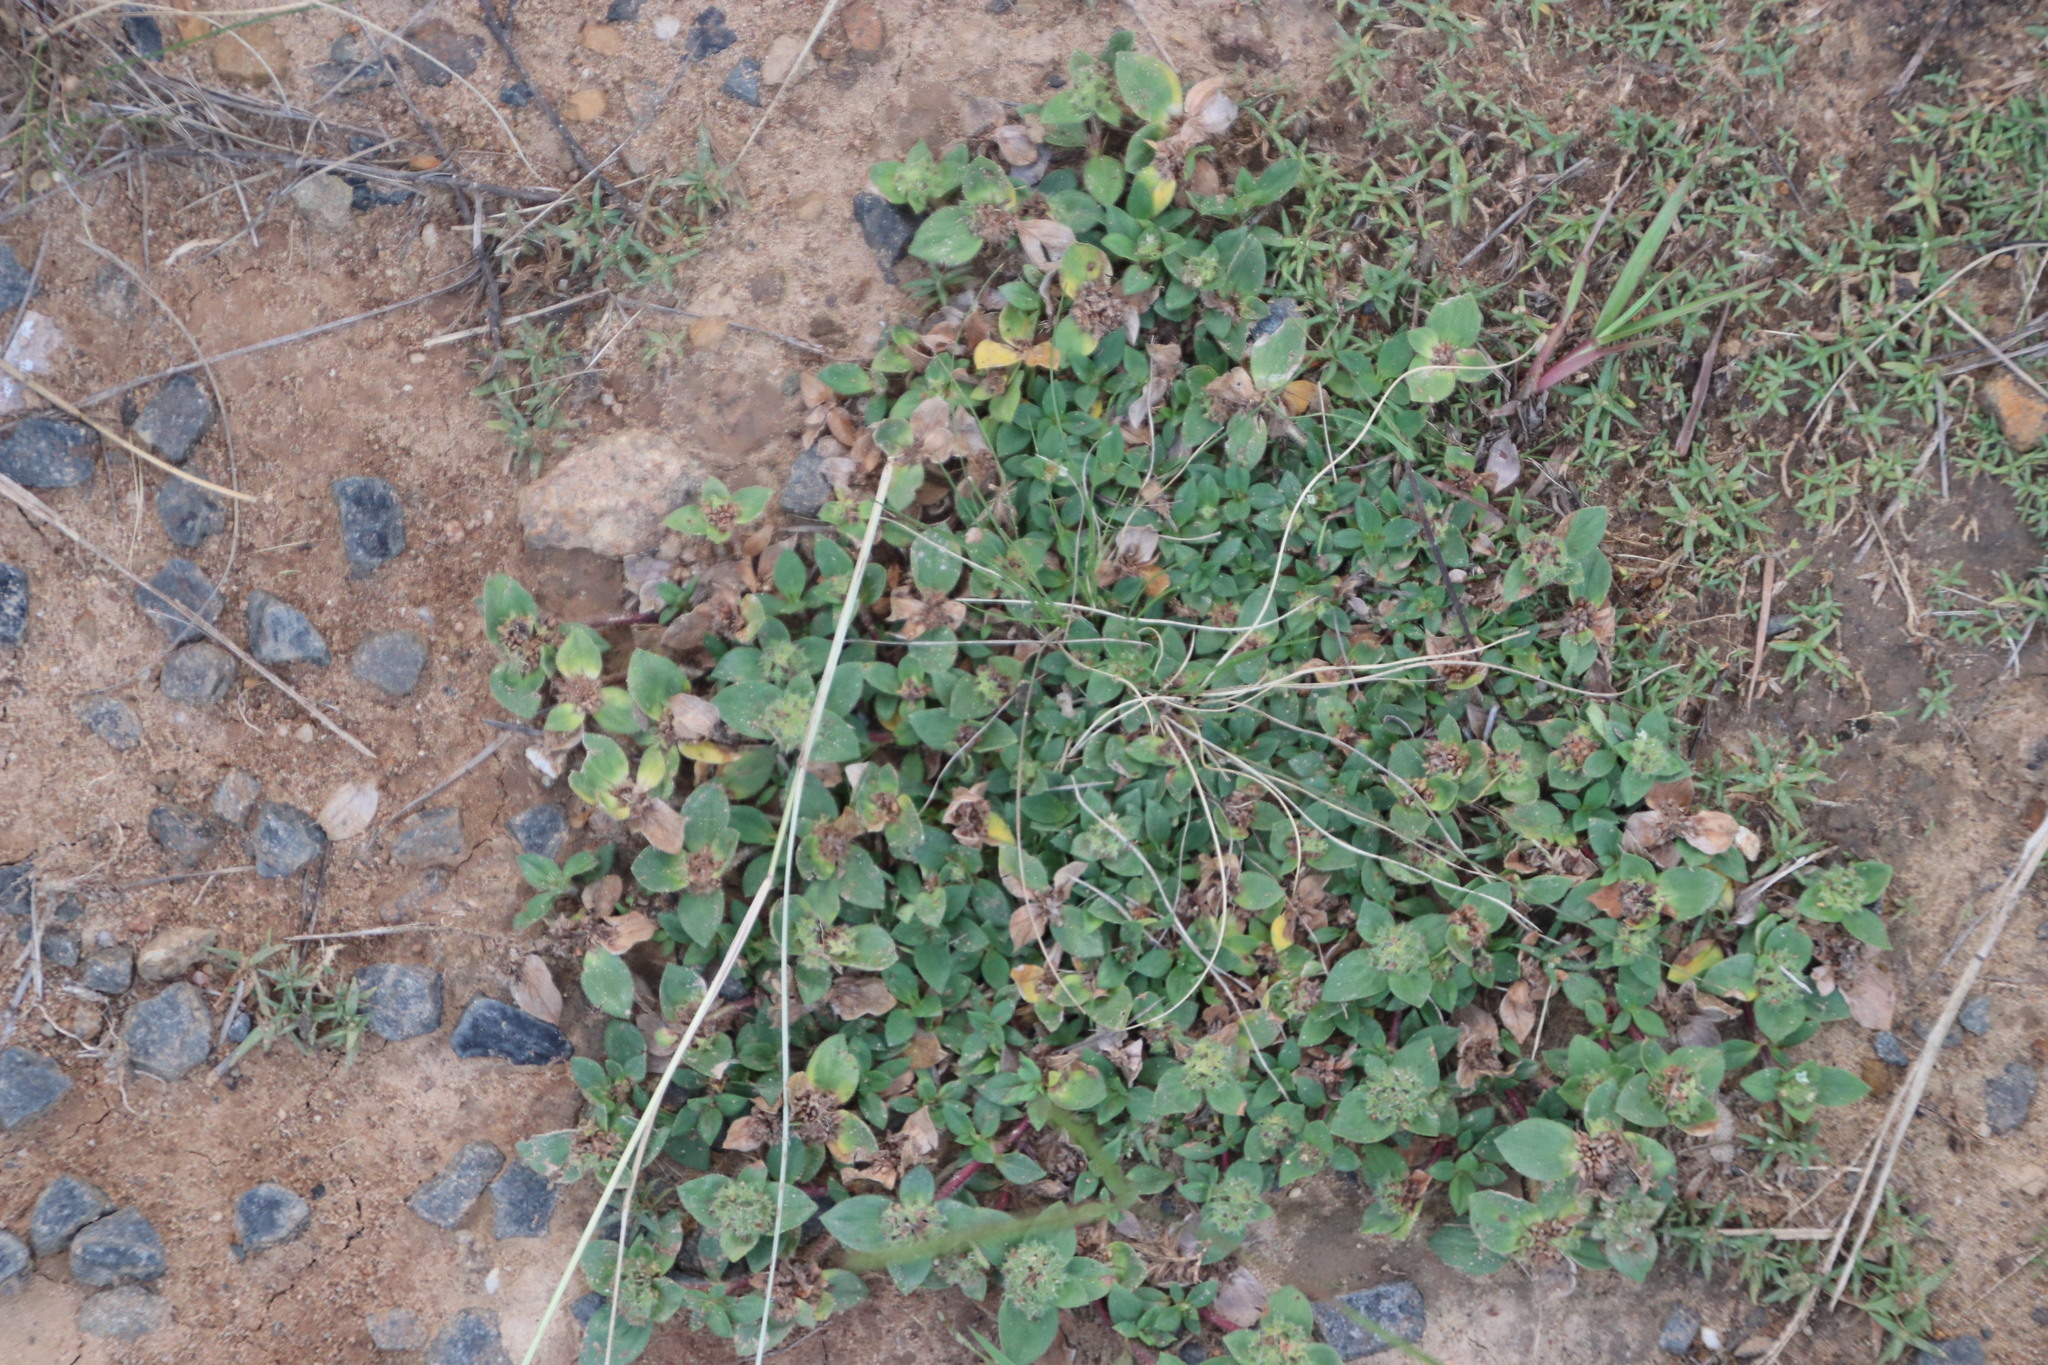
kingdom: Plantae
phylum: Tracheophyta
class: Magnoliopsida
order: Gentianales
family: Rubiaceae
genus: Richardia
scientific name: Richardia brasiliensis
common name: Tropical mexican clover
